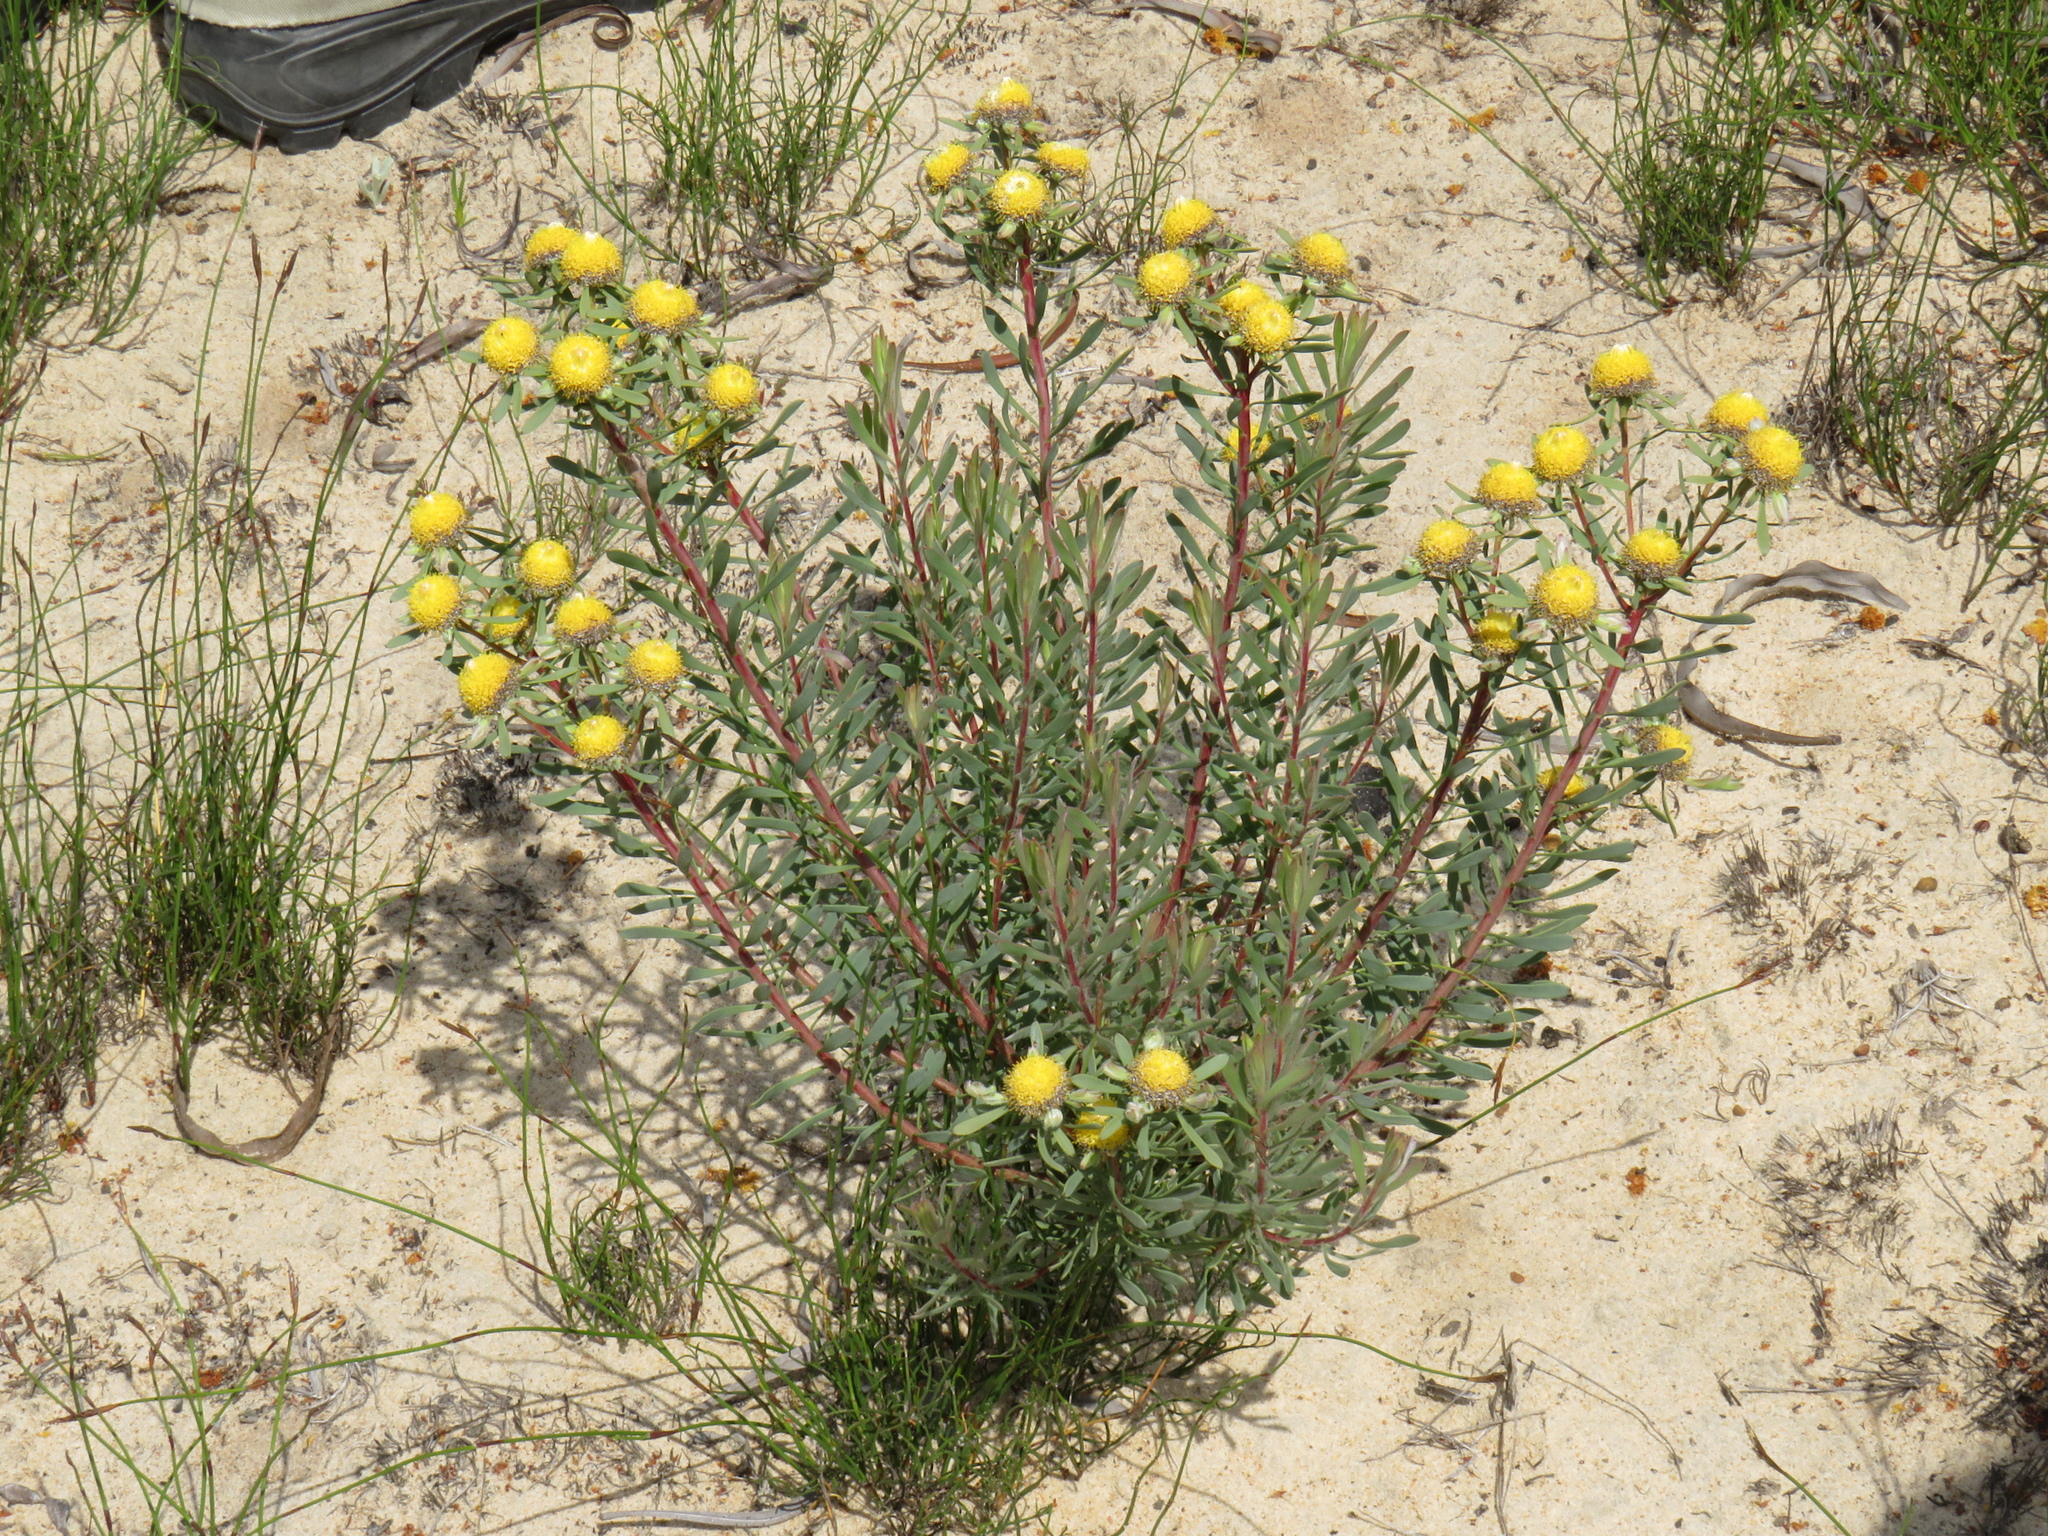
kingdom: Plantae
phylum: Tracheophyta
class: Magnoliopsida
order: Proteales
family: Proteaceae
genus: Leucadendron
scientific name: Leucadendron cinereum
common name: Scraggly conebush
